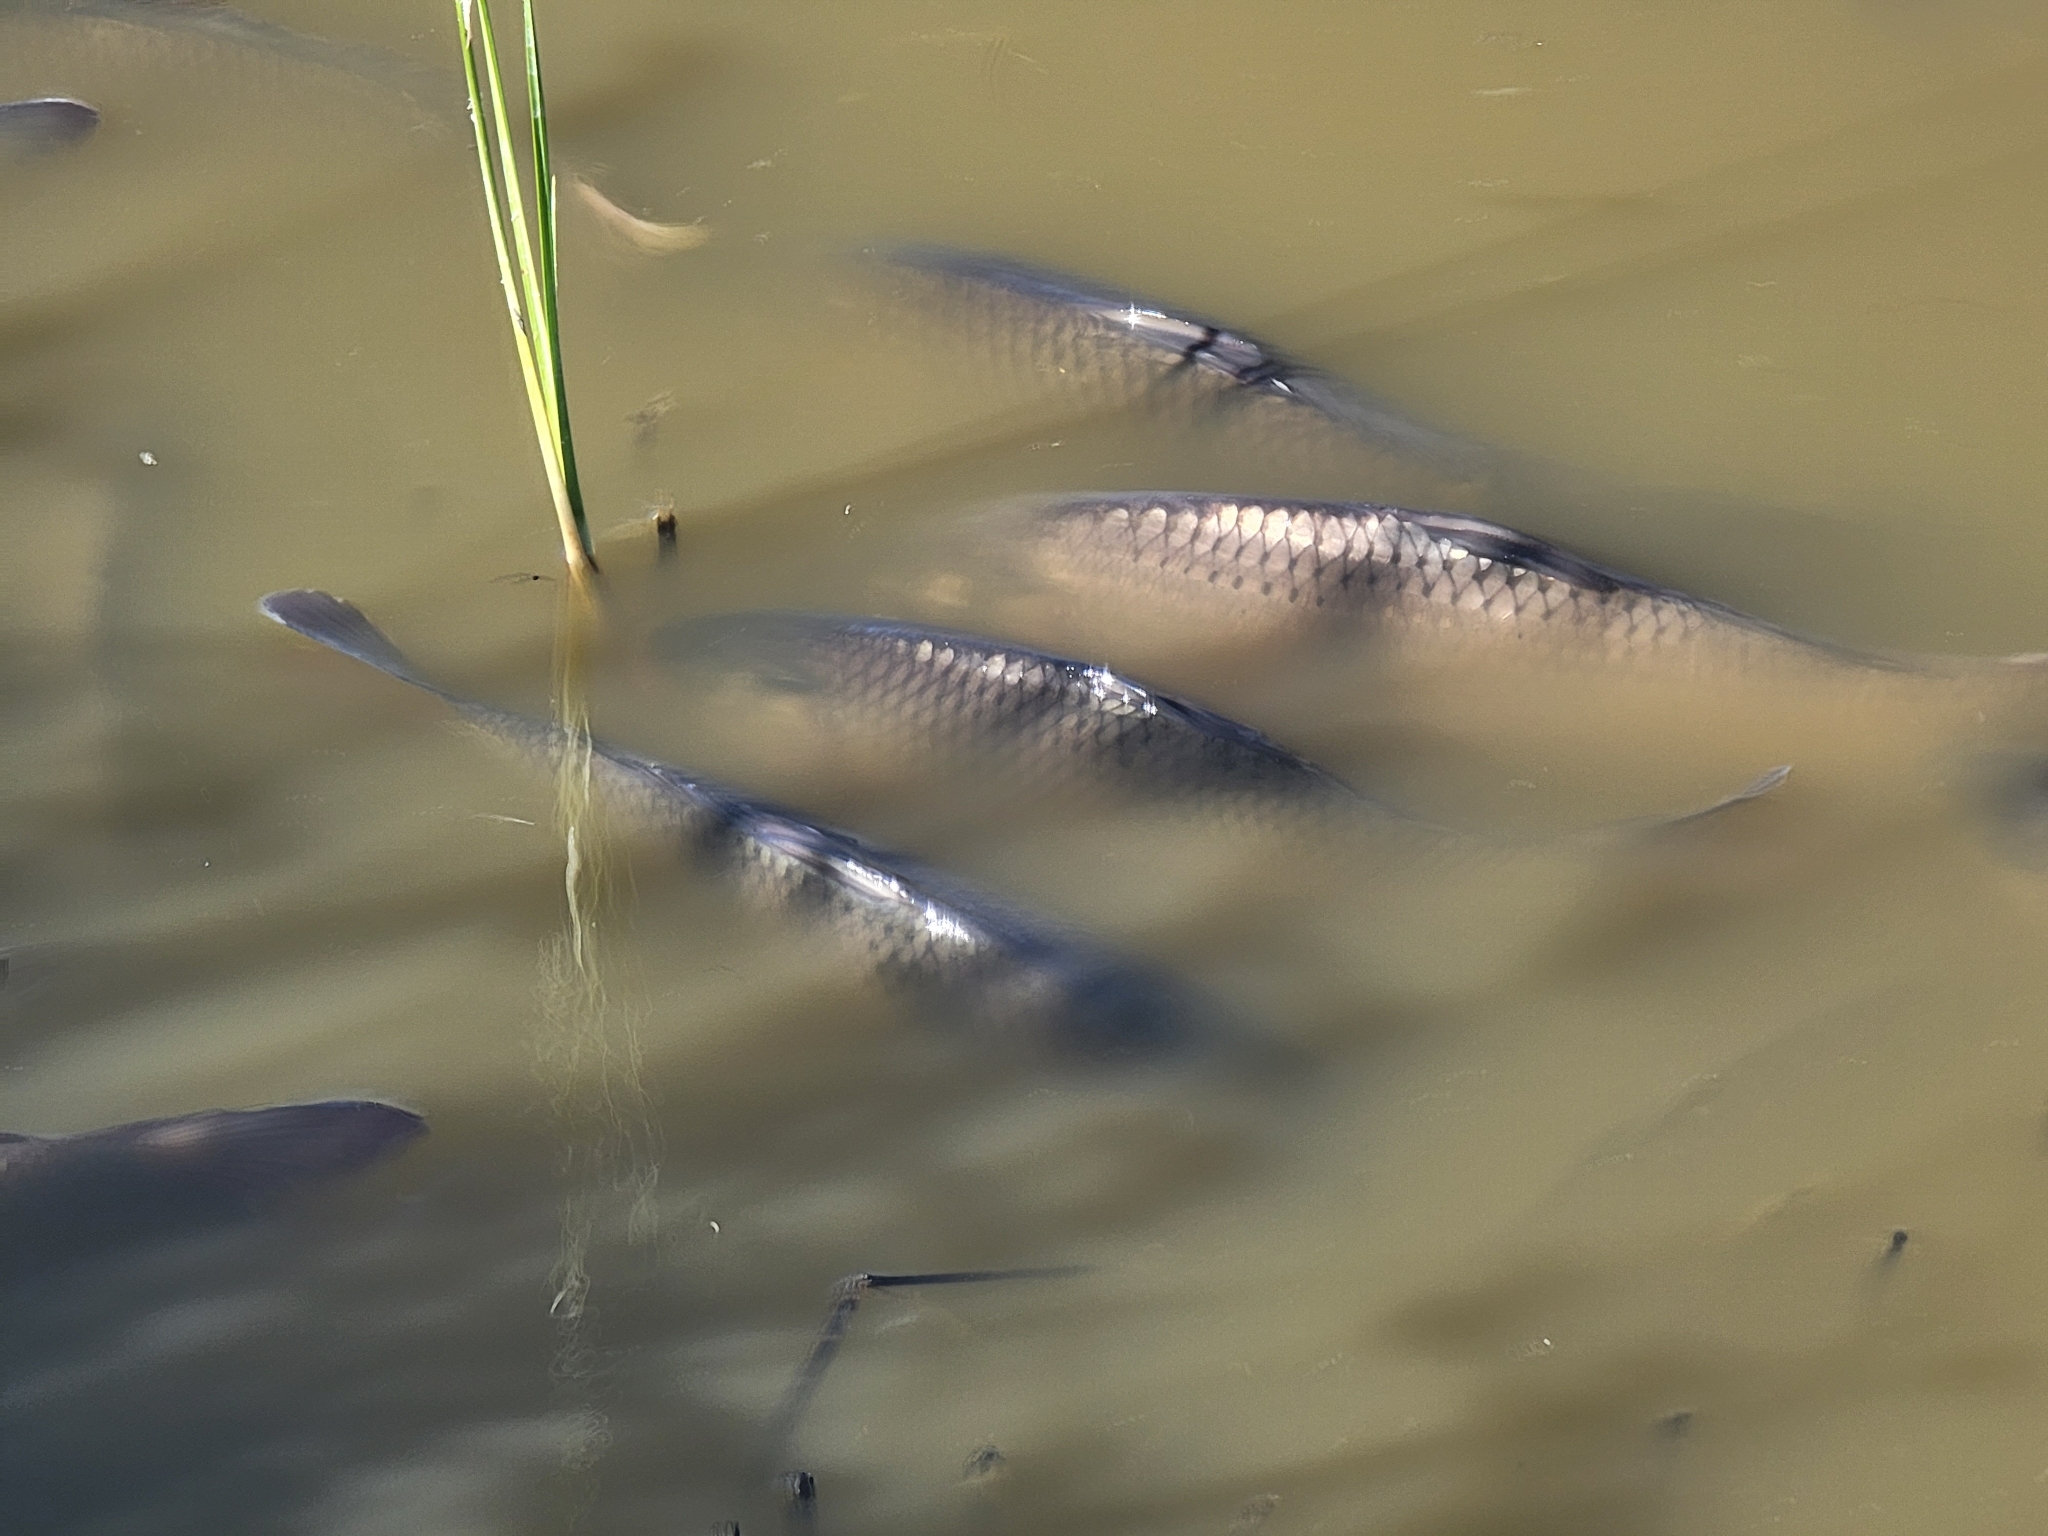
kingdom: Animalia
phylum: Chordata
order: Cypriniformes
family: Cyprinidae
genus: Cyprinus
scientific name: Cyprinus carpio
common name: Common carp
